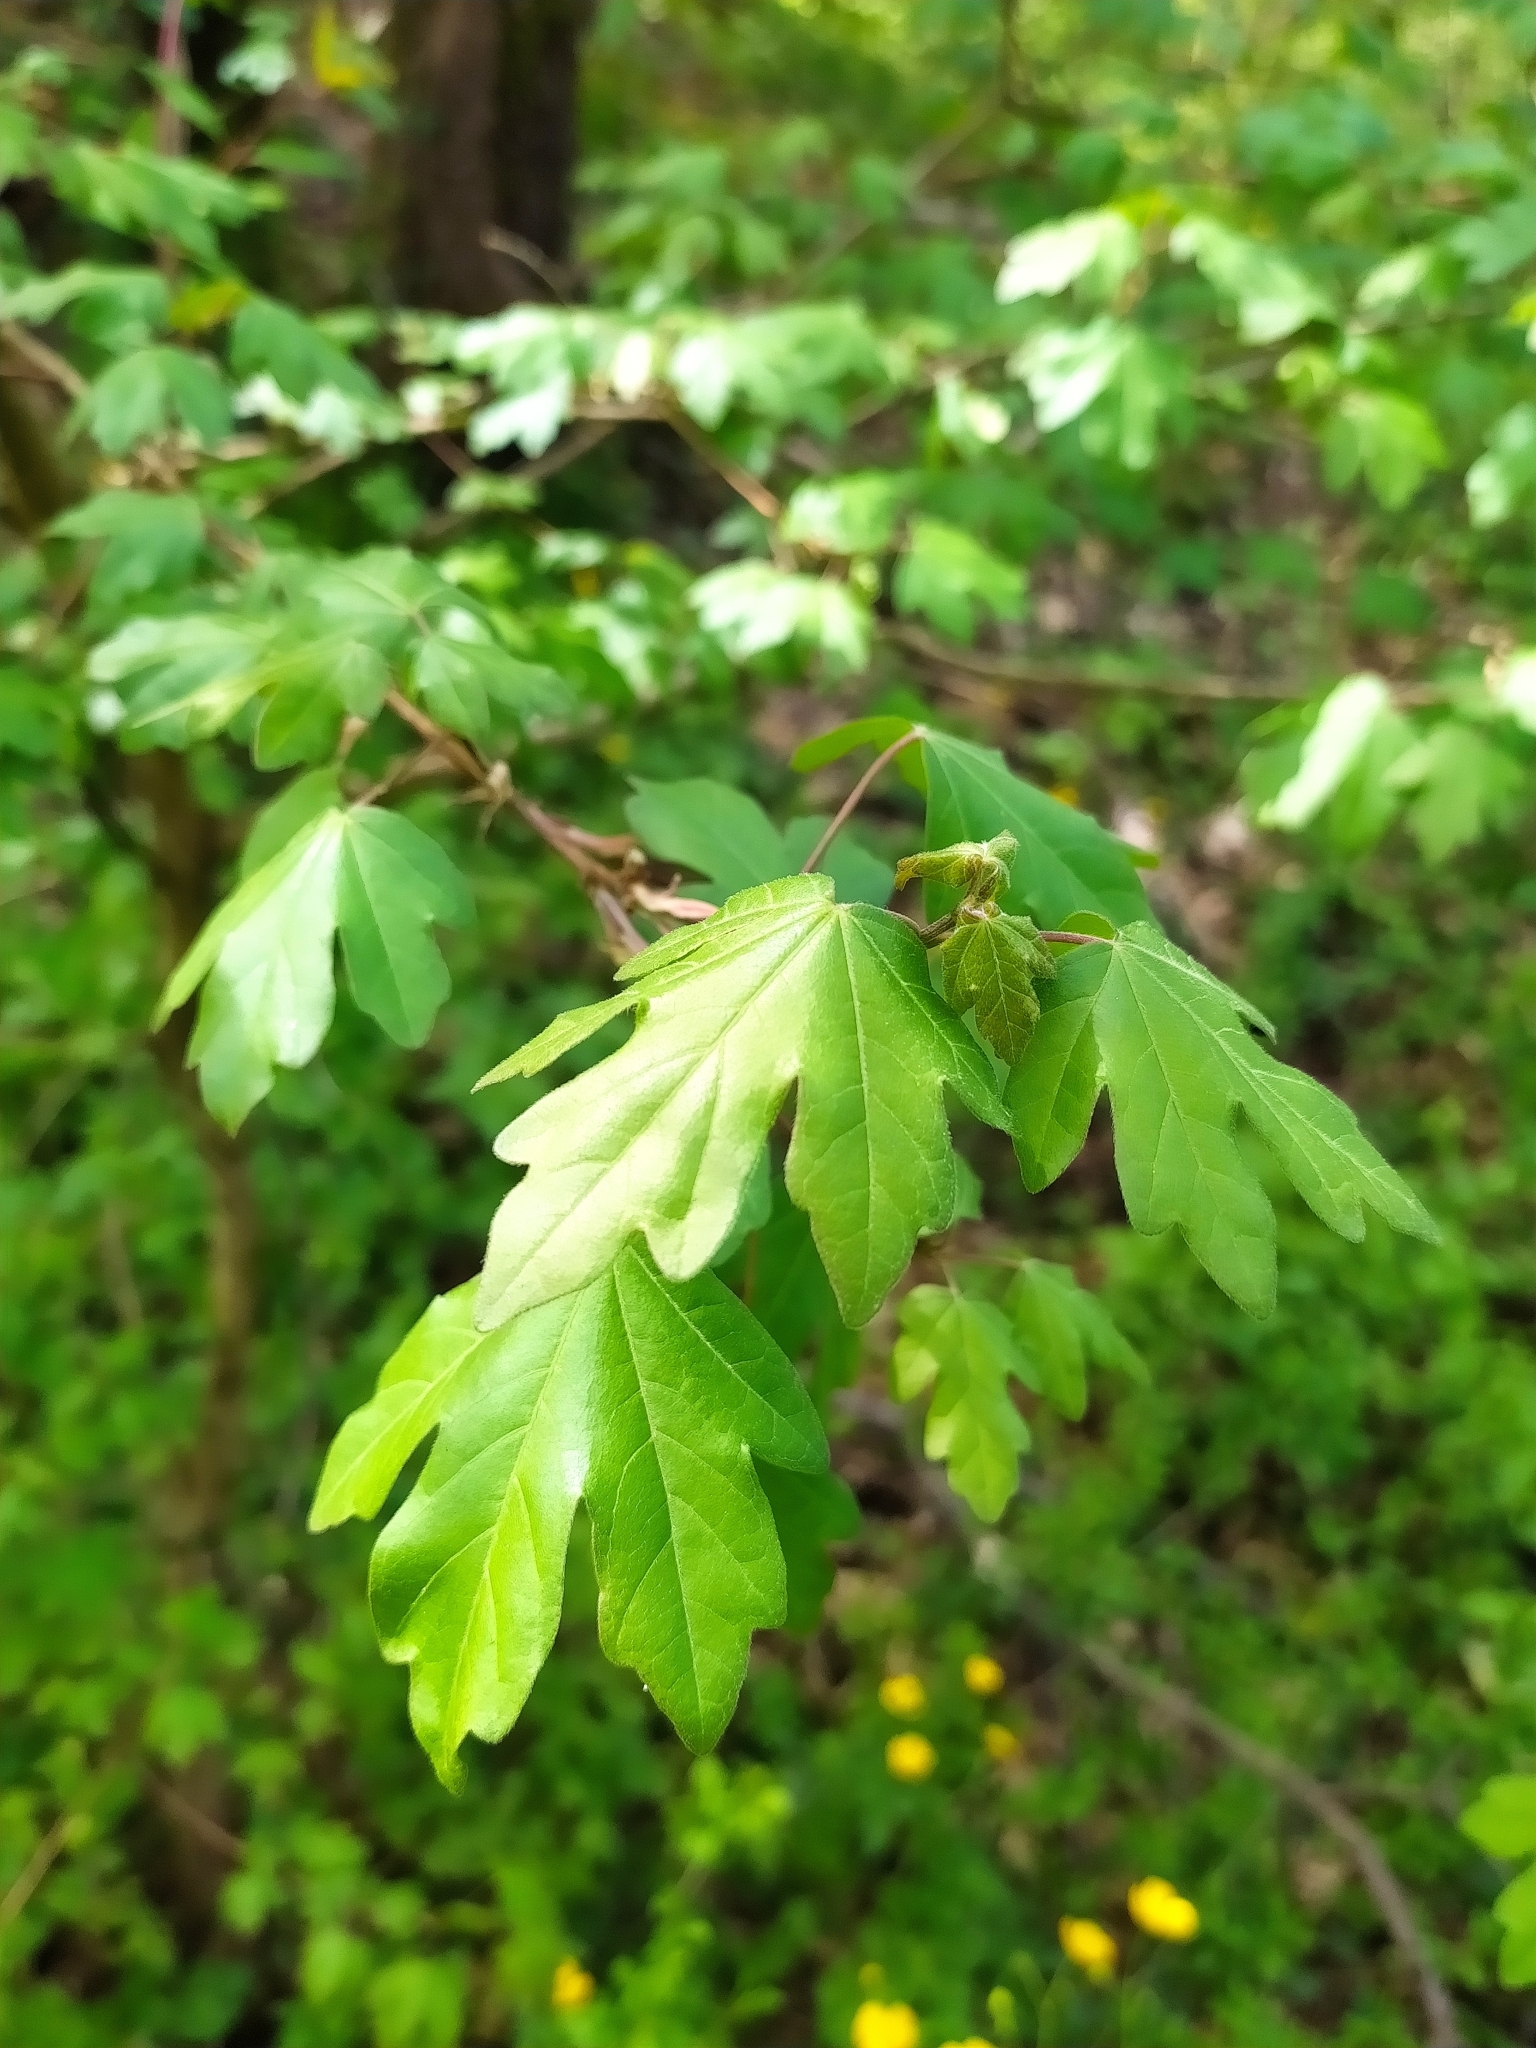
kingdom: Plantae
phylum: Tracheophyta
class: Magnoliopsida
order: Sapindales
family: Sapindaceae
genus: Acer
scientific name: Acer campestre
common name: Field maple
